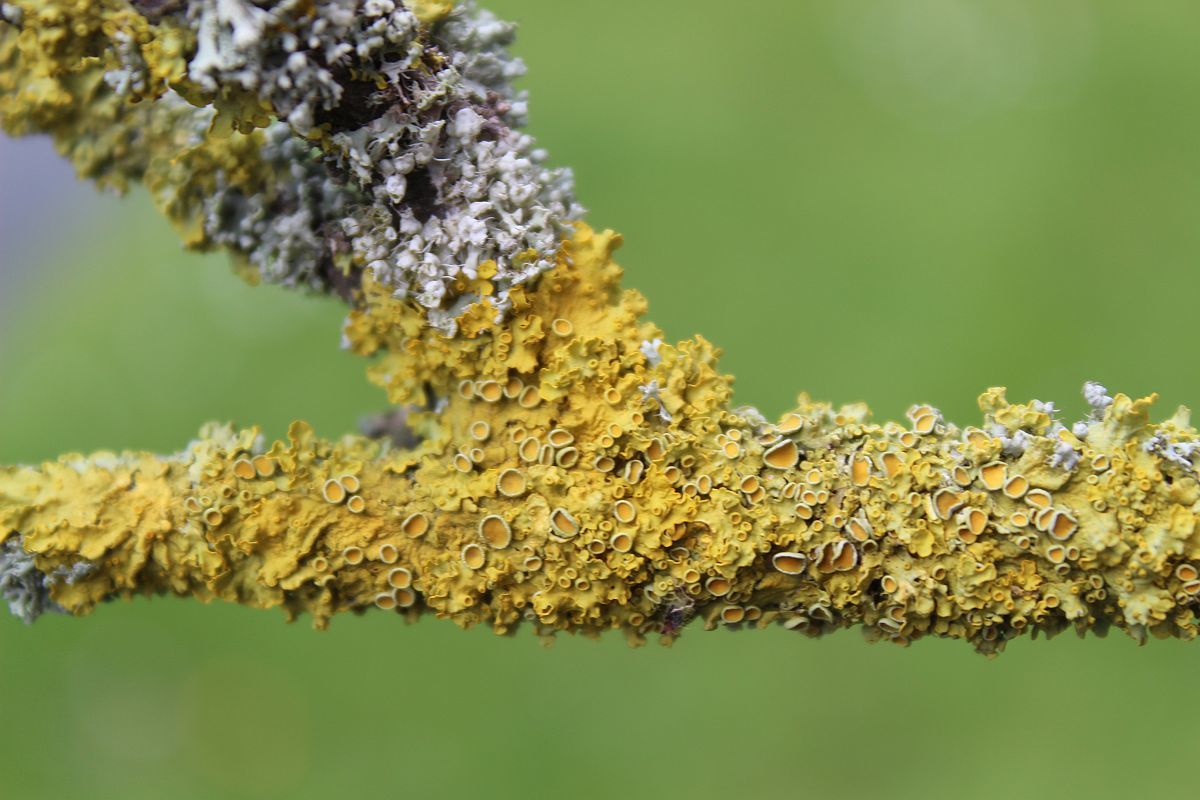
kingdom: Fungi
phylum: Ascomycota
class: Lecanoromycetes
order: Teloschistales
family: Teloschistaceae
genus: Xanthoria
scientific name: Xanthoria parietina
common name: Common orange lichen
